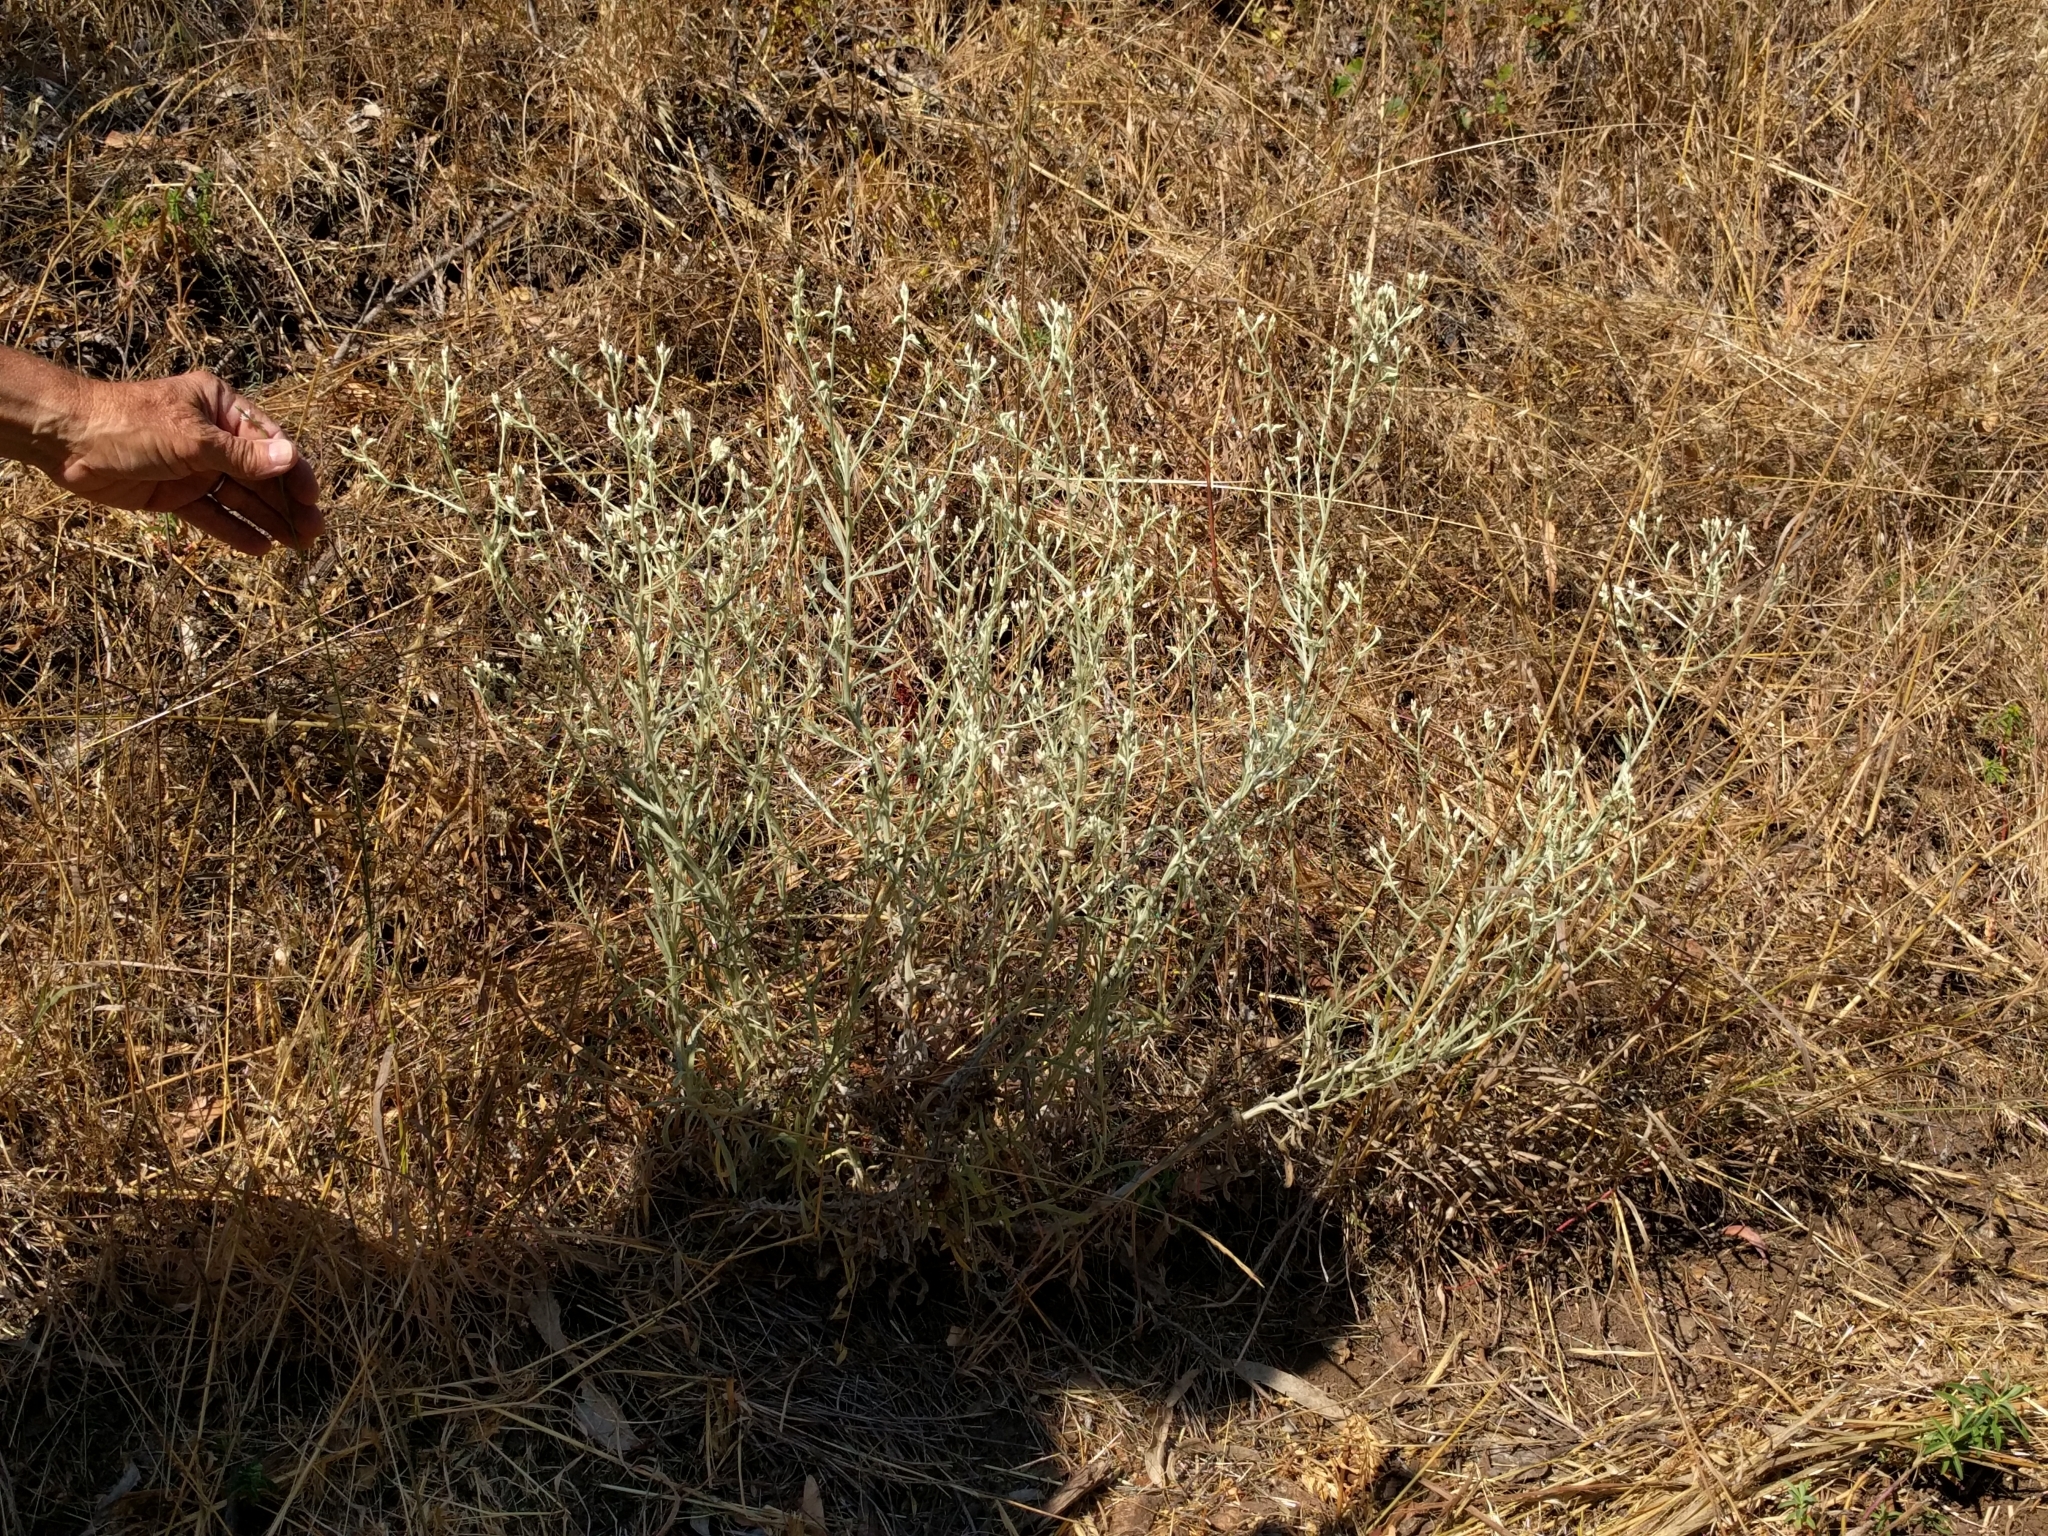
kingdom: Plantae
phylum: Tracheophyta
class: Magnoliopsida
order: Asterales
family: Asteraceae
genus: Pseudognaphalium
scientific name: Pseudognaphalium beneolens
